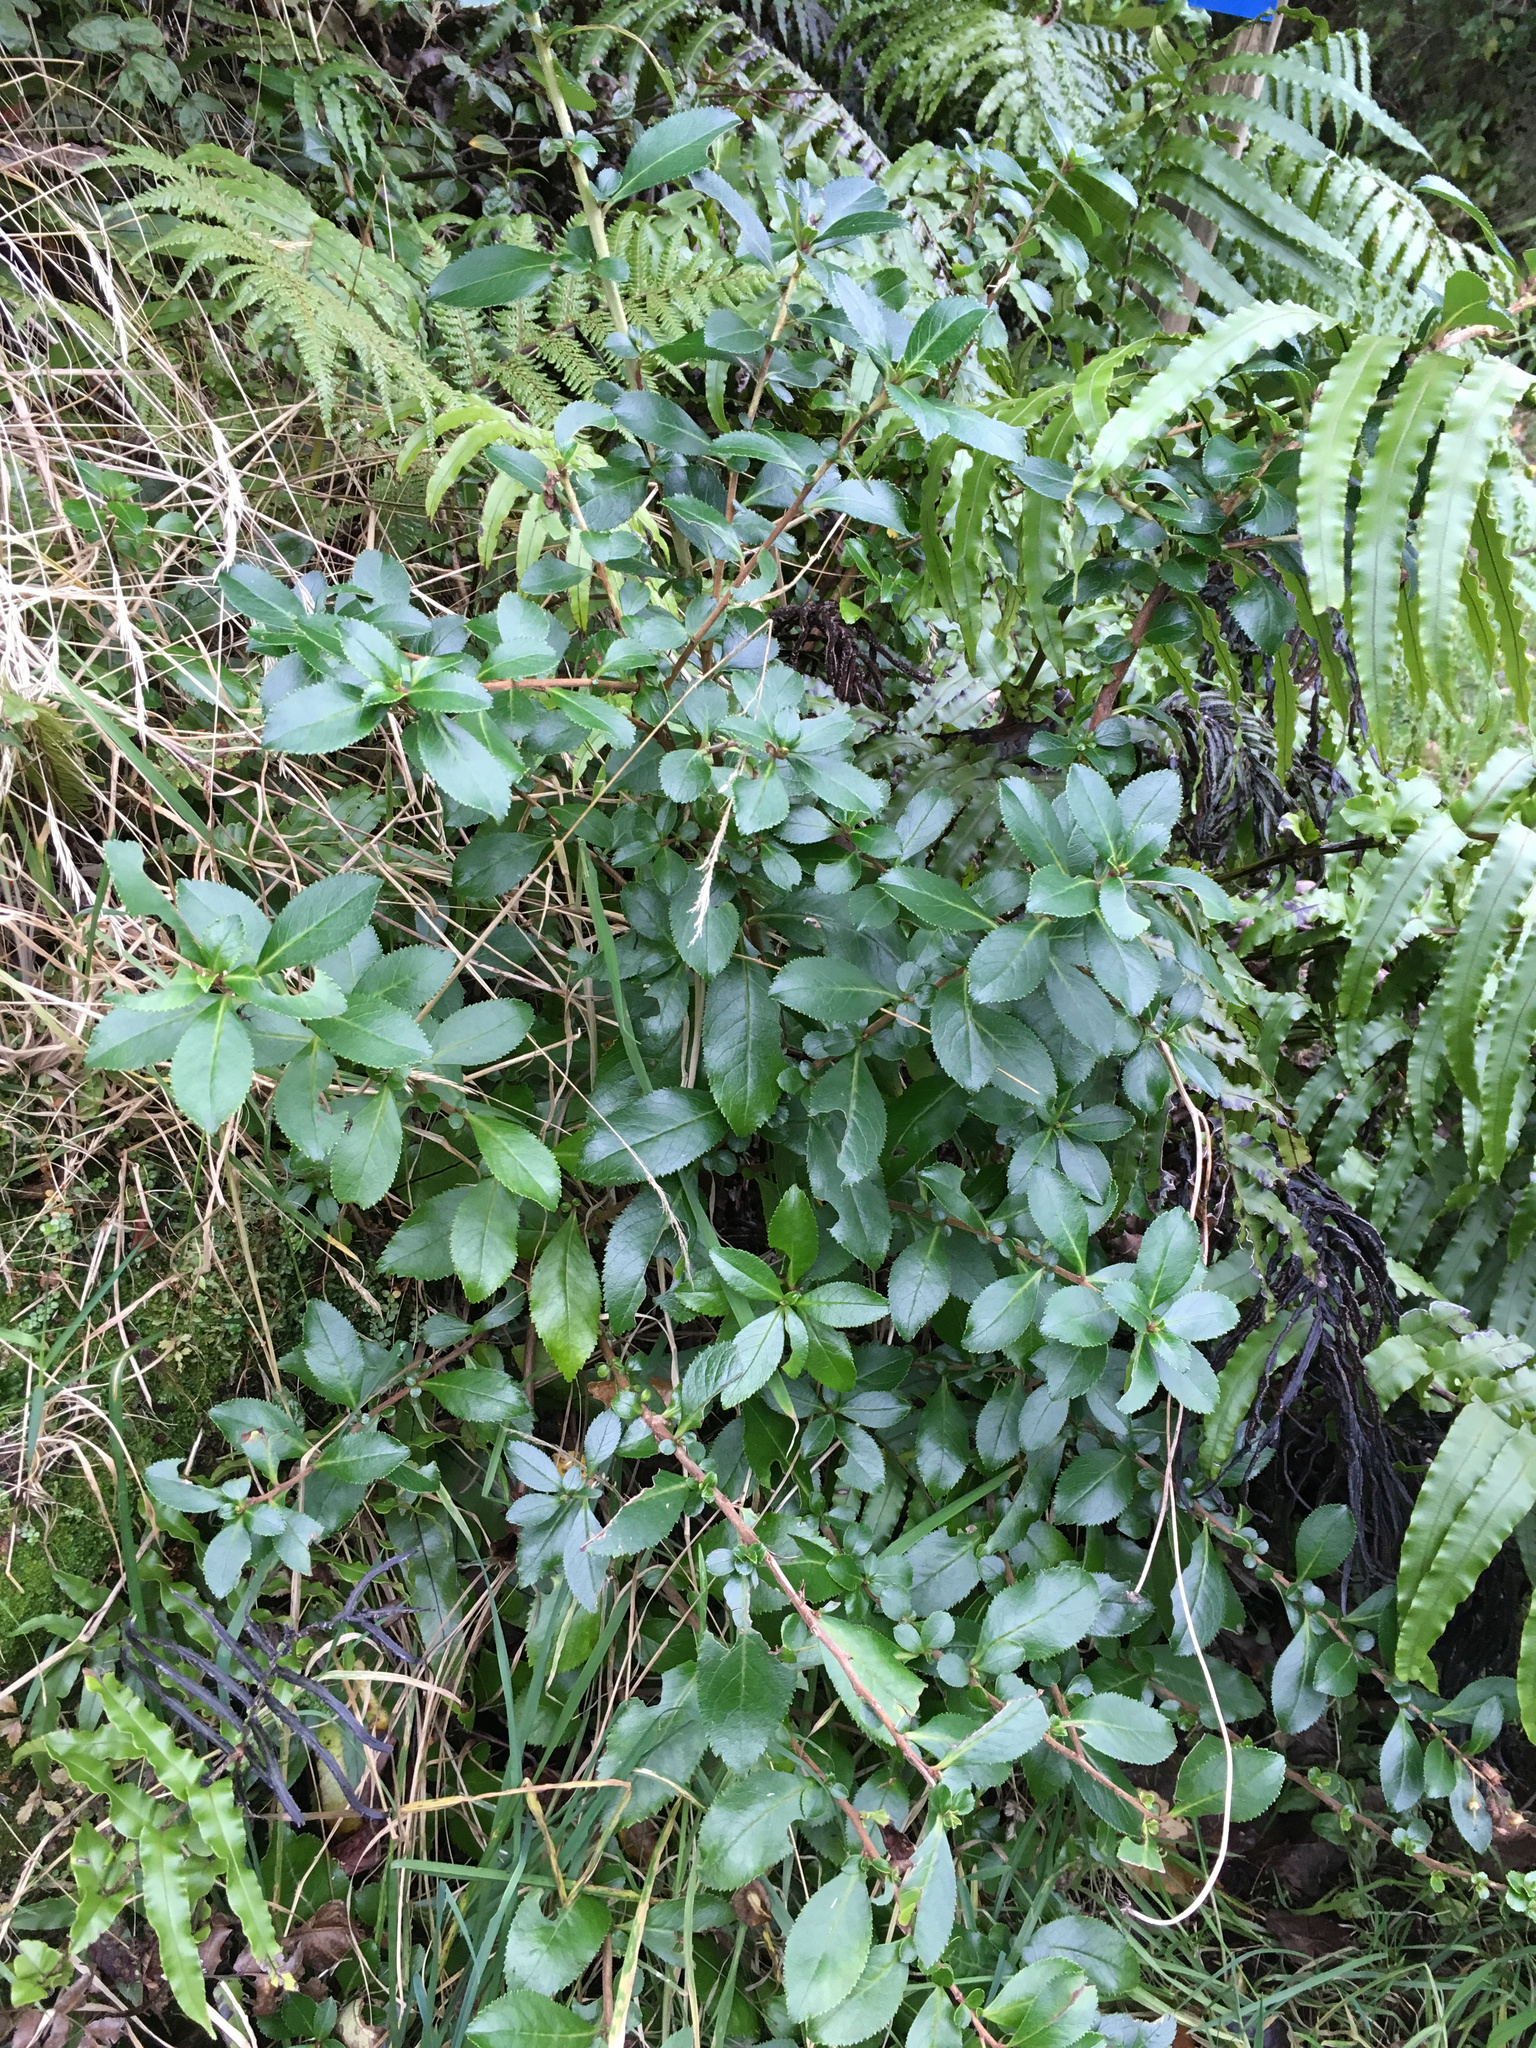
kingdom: Plantae
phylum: Tracheophyta
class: Magnoliopsida
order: Escalloniales
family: Escalloniaceae
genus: Escallonia
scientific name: Escallonia rubra
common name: Redclaws
